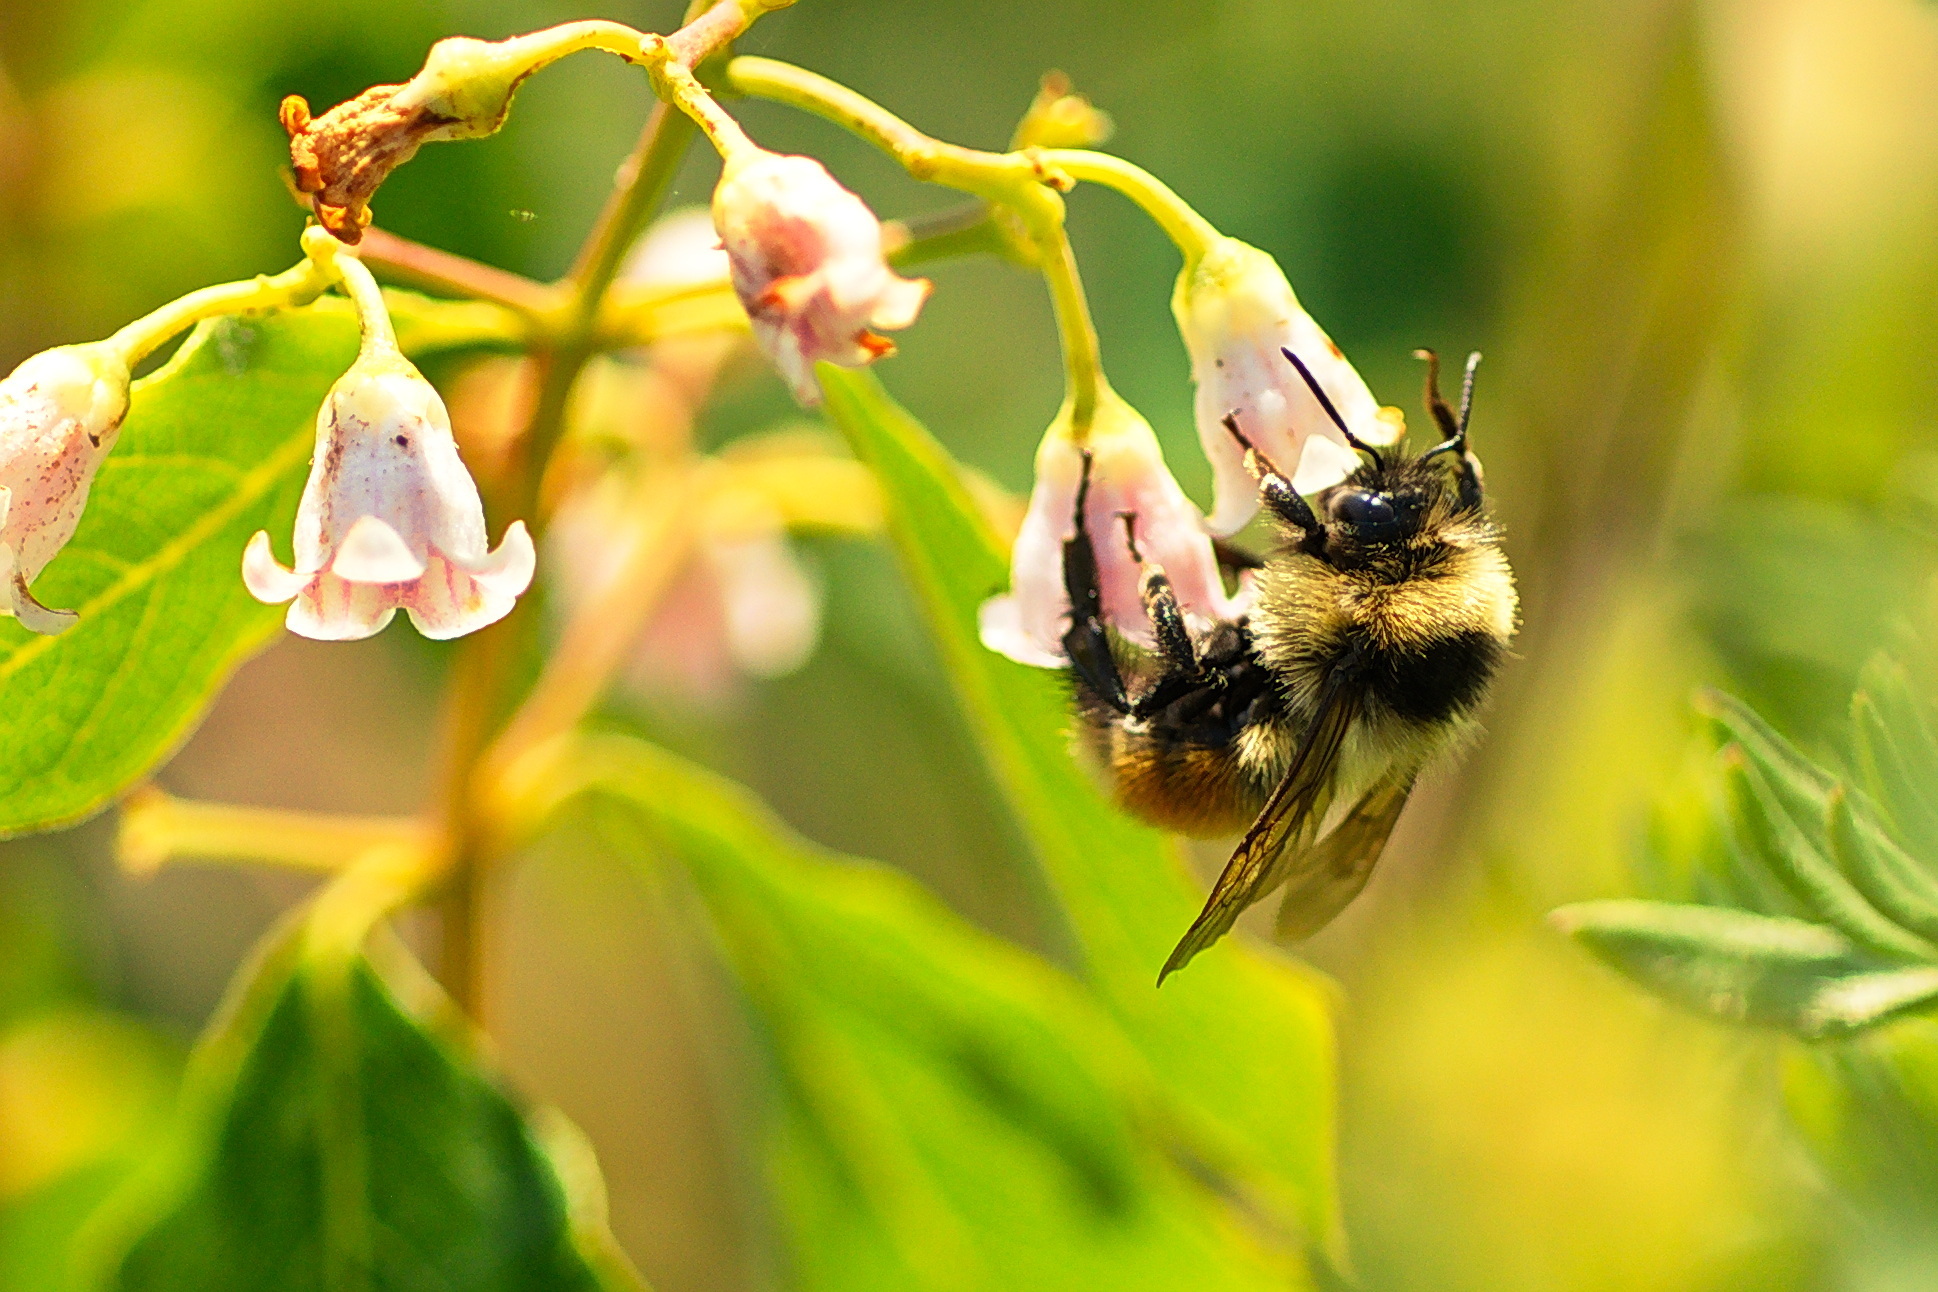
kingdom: Animalia
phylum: Arthropoda
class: Insecta
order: Hymenoptera
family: Apidae
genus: Bombus
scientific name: Bombus rufocinctus
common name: Red-belted bumble bee
